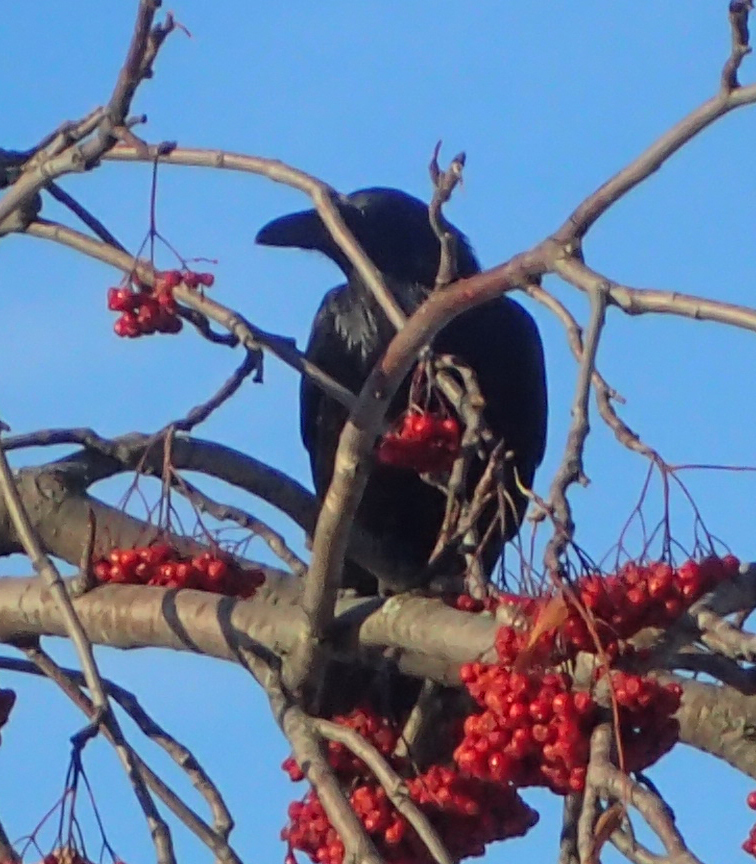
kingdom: Animalia
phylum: Chordata
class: Aves
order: Passeriformes
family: Corvidae
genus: Corvus
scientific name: Corvus corax
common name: Common raven
